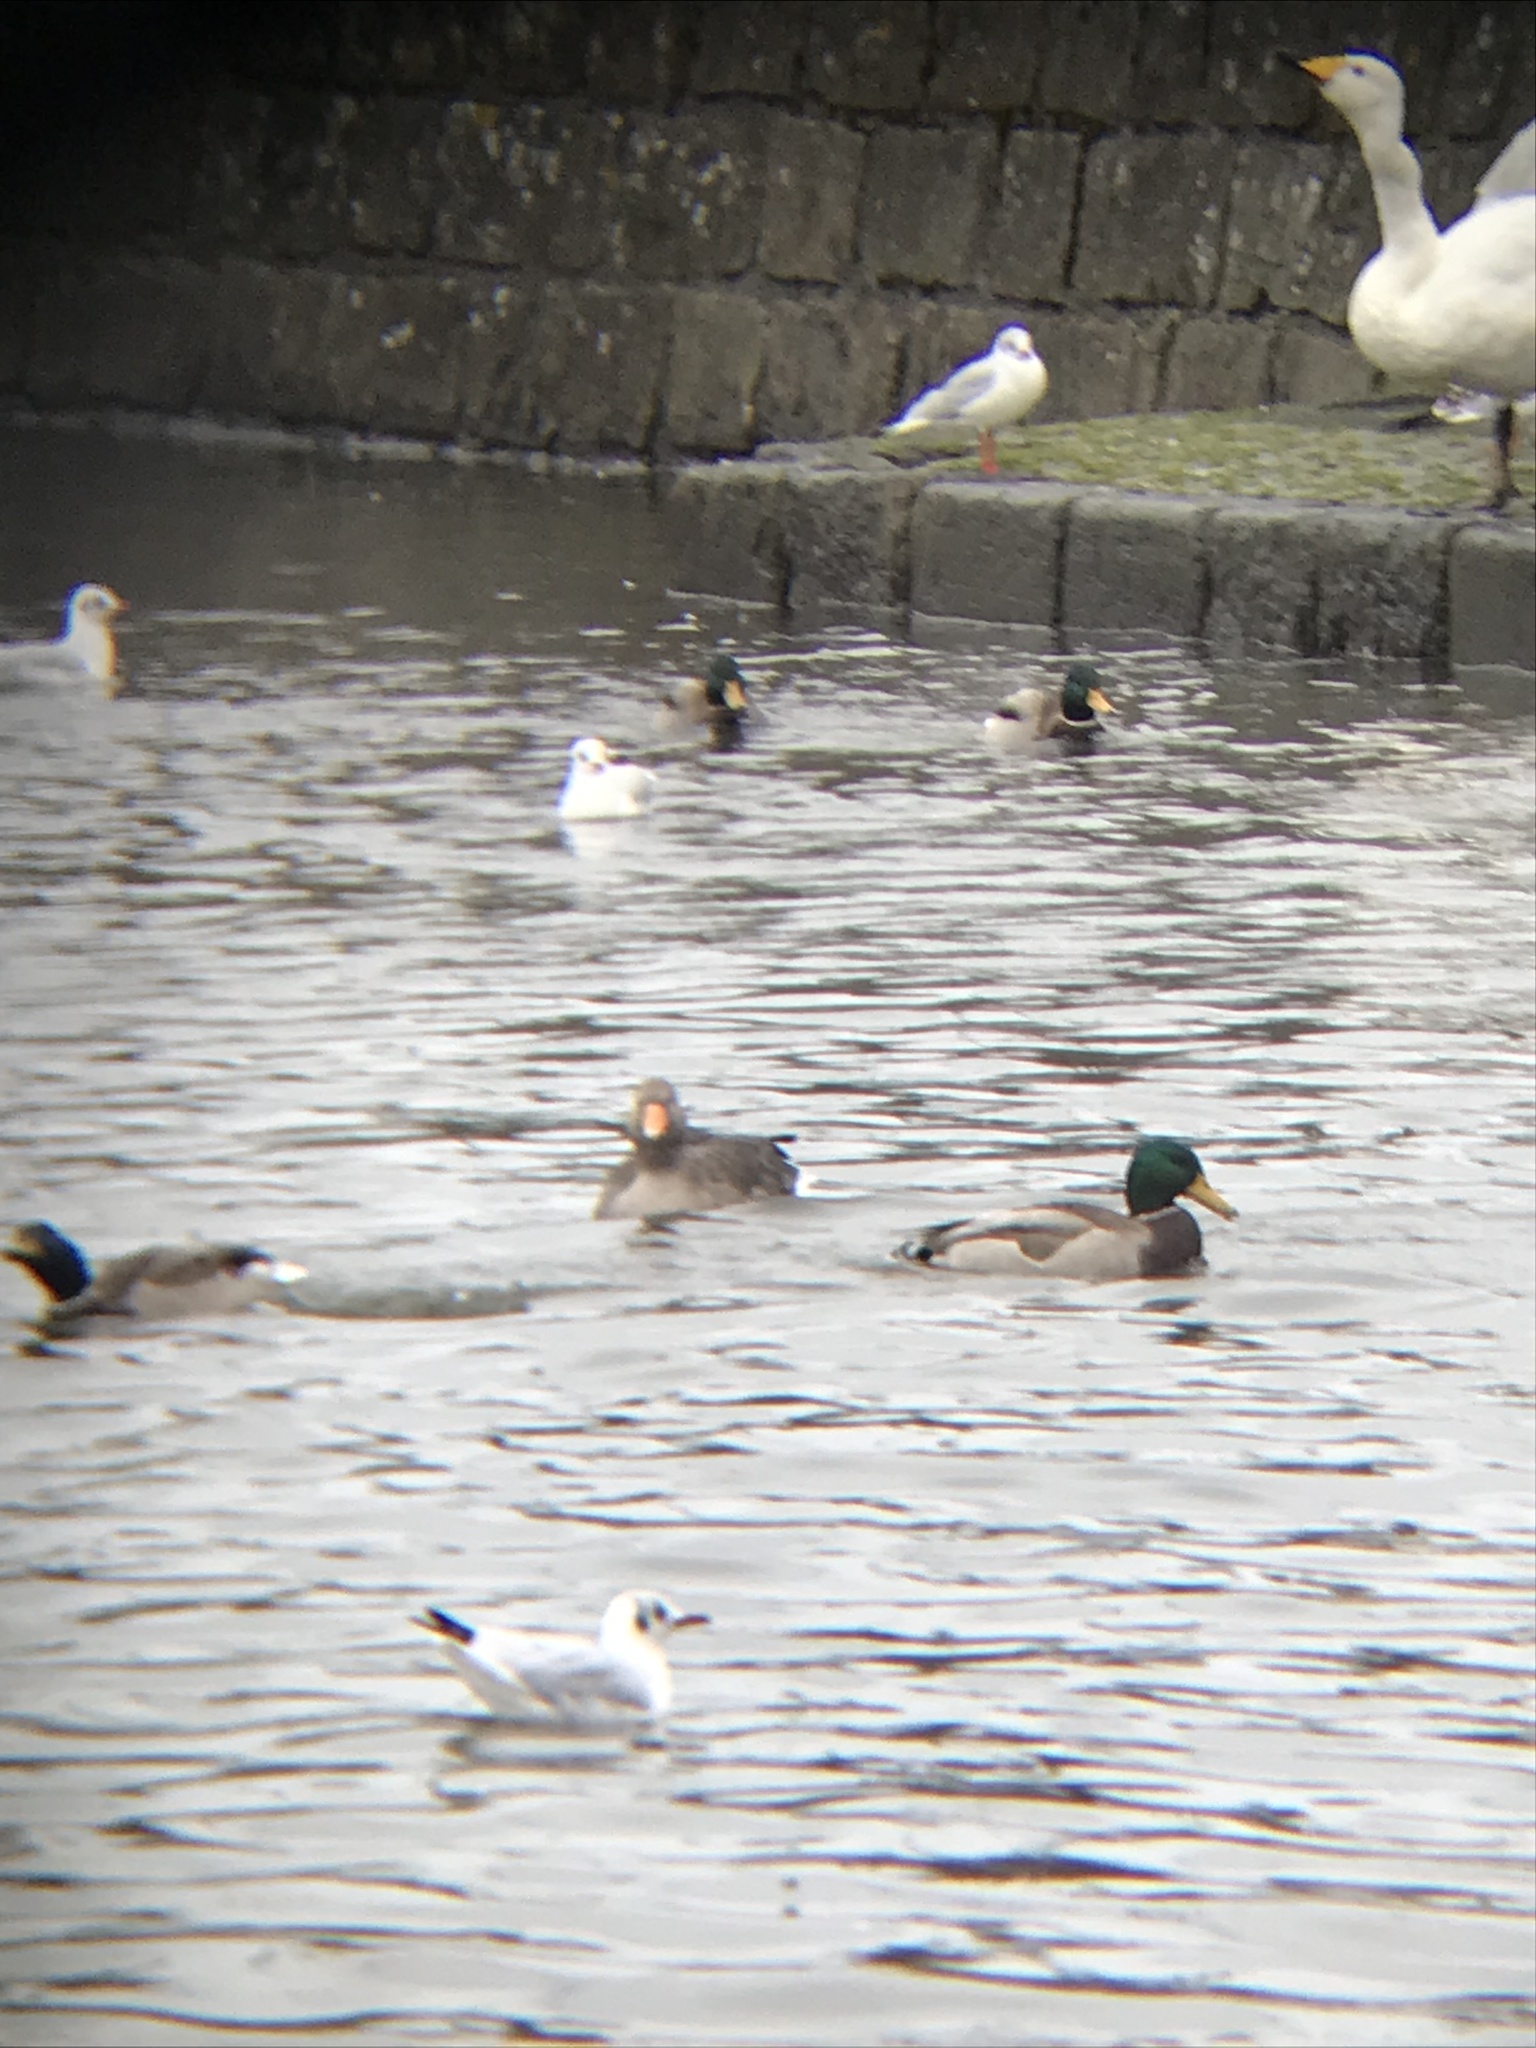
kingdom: Animalia
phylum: Chordata
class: Aves
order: Anseriformes
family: Anatidae
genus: Anser
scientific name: Anser anser
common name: Greylag goose
